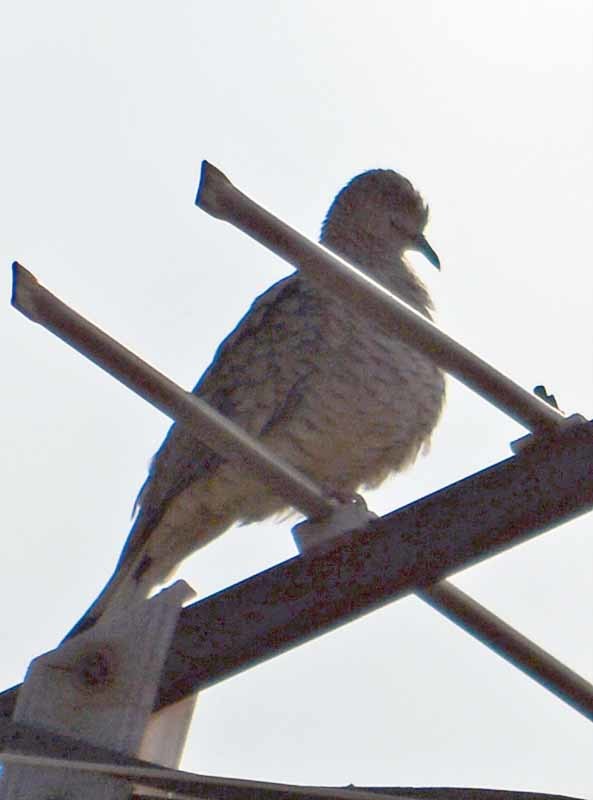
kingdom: Animalia
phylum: Chordata
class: Aves
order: Columbiformes
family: Columbidae
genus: Columbina
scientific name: Columbina inca
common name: Inca dove
